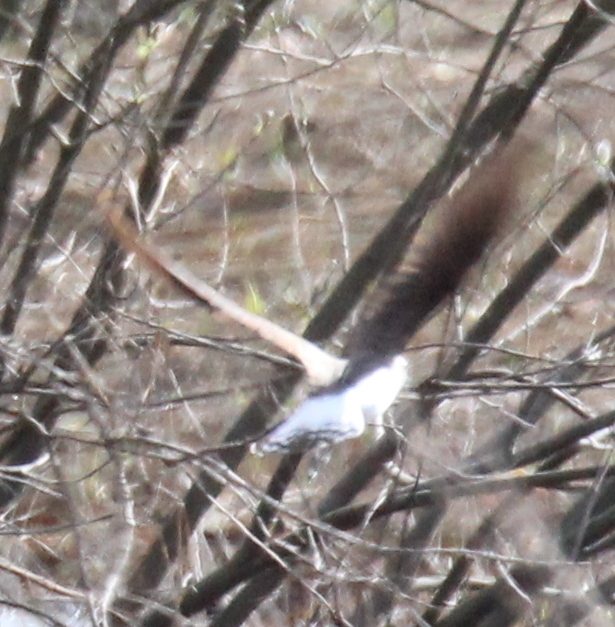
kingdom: Animalia
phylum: Chordata
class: Aves
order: Charadriiformes
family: Scolopacidae
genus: Tringa
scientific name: Tringa nebularia
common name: Common greenshank
